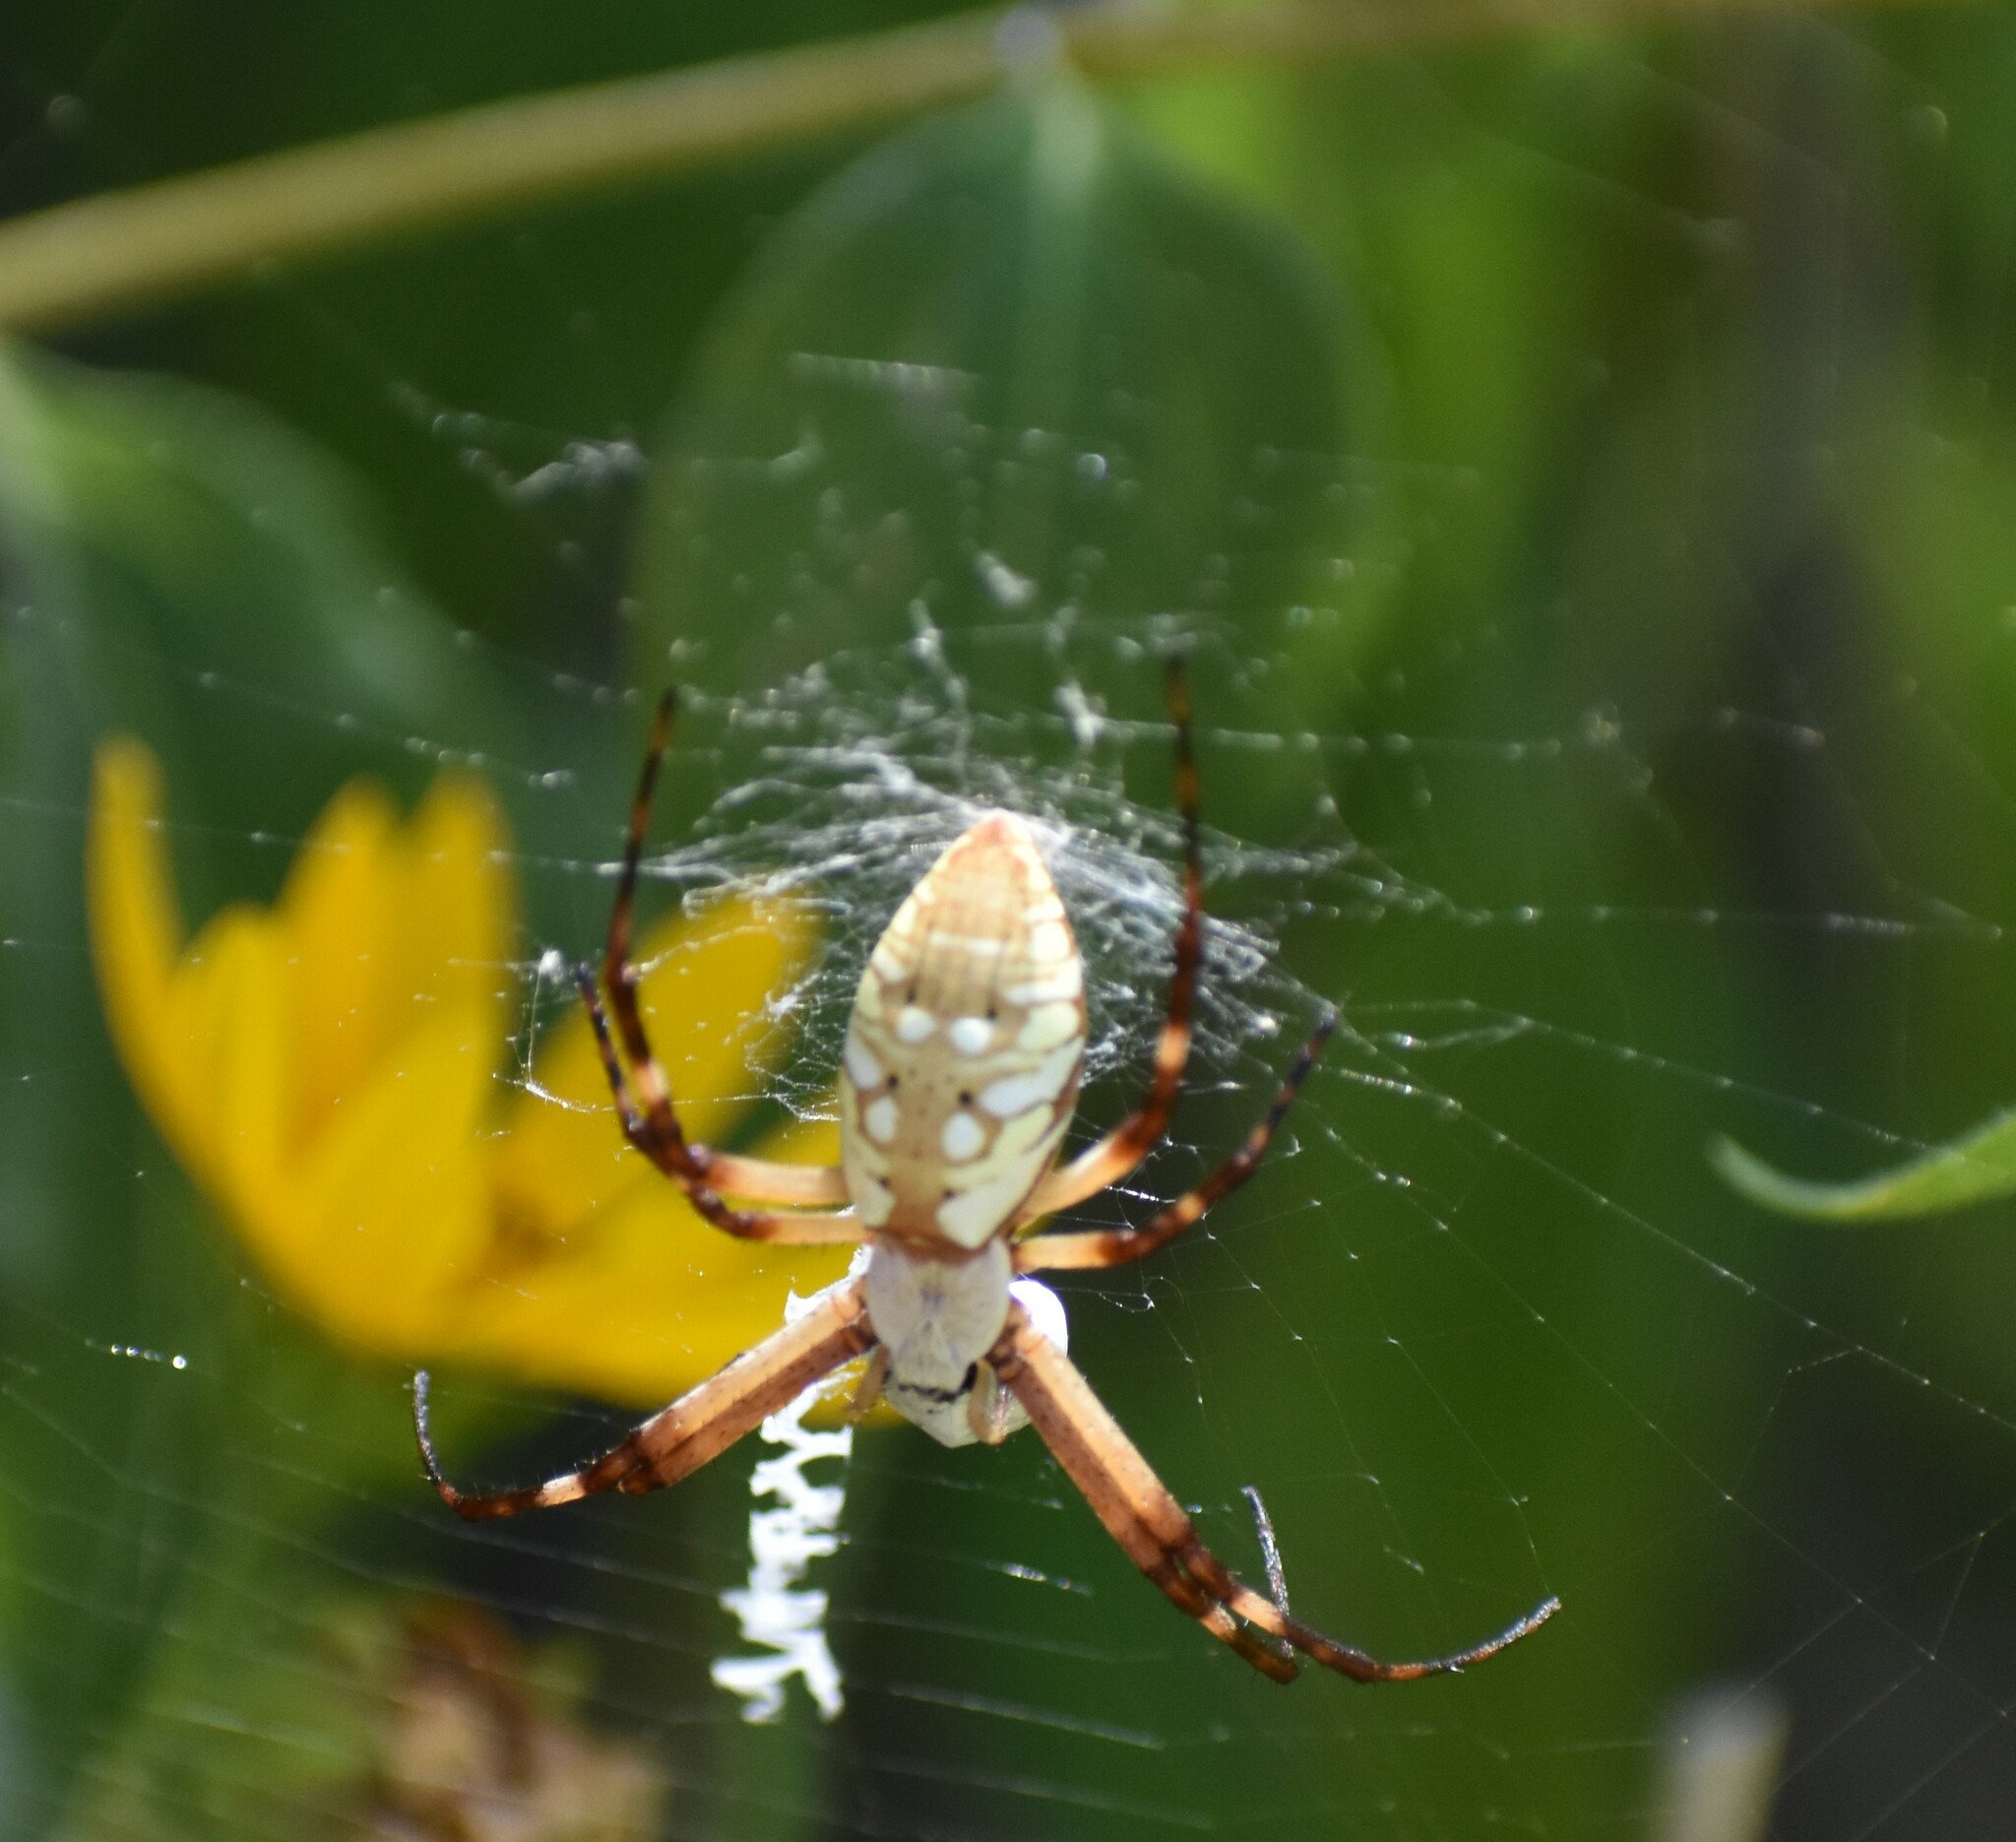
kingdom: Animalia
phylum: Arthropoda
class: Arachnida
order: Araneae
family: Araneidae
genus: Argiope
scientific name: Argiope aurantia
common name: Orb weavers
